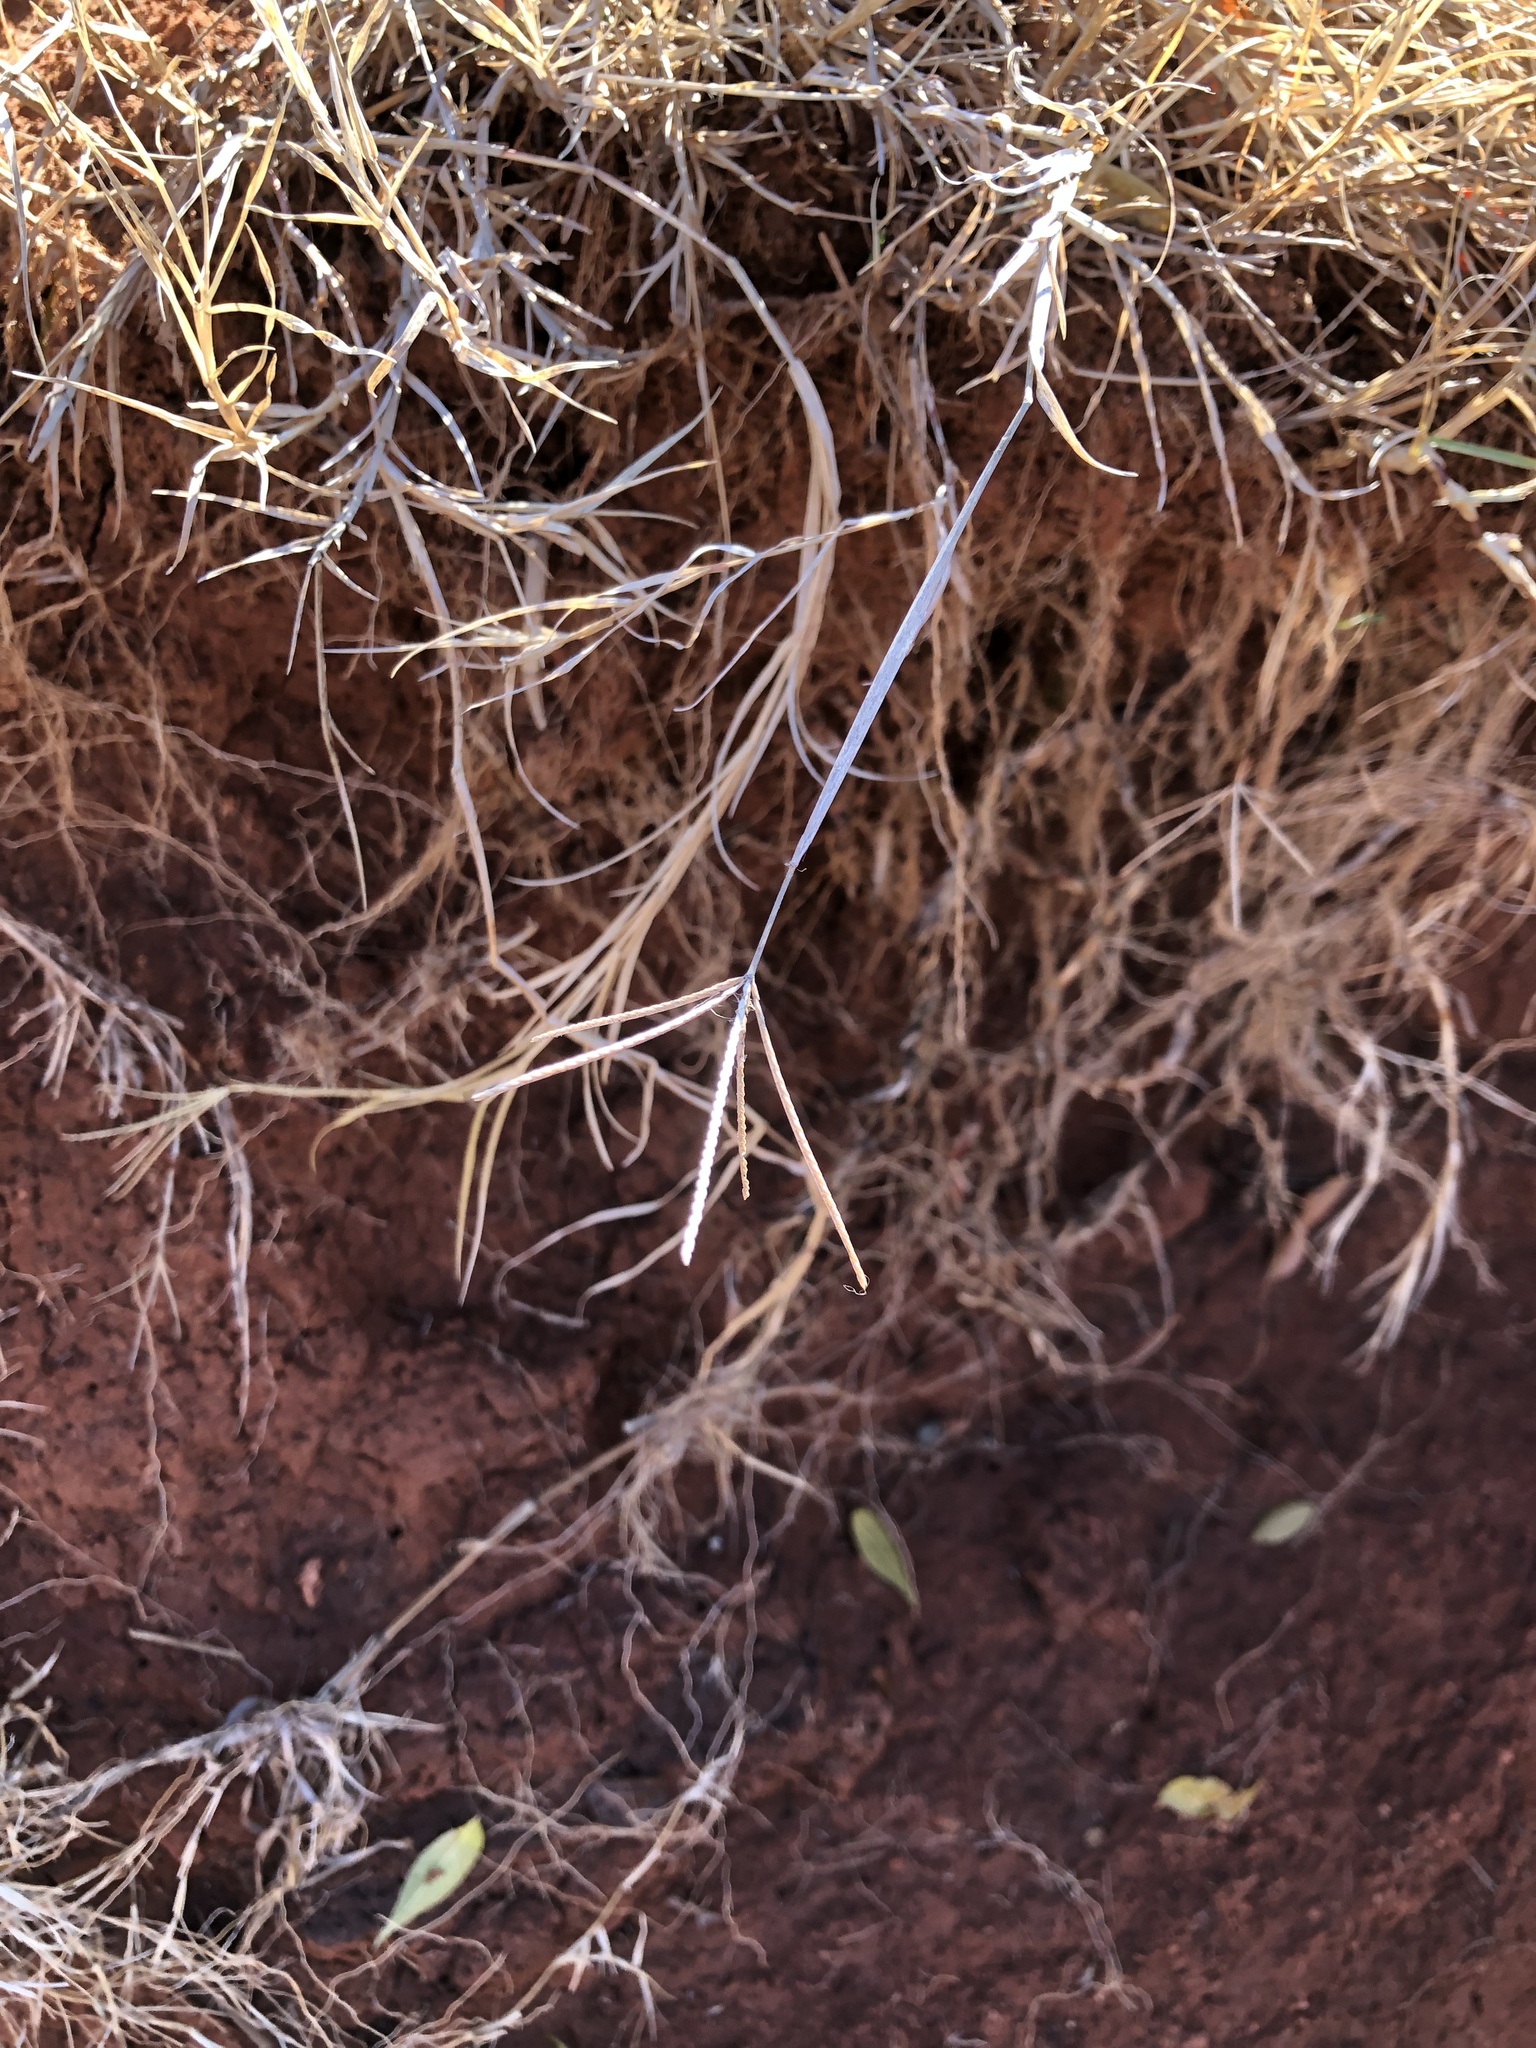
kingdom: Plantae
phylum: Tracheophyta
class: Liliopsida
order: Poales
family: Poaceae
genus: Cynodon
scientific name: Cynodon dactylon
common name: Bermuda grass
